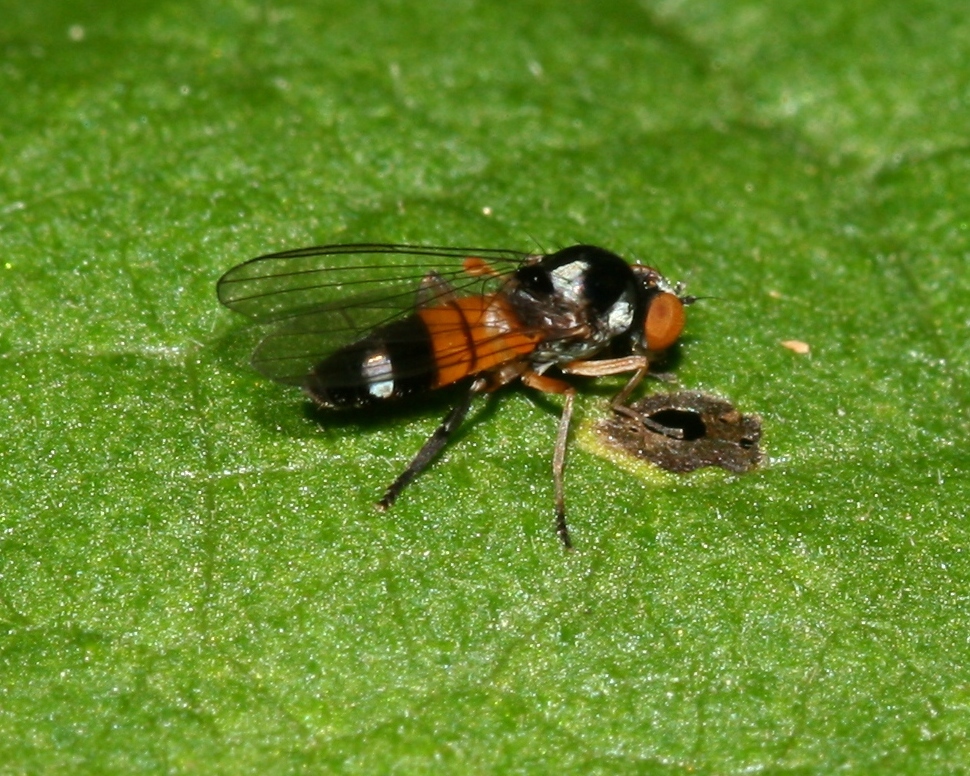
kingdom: Animalia
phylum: Arthropoda
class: Insecta
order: Diptera
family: Platypezidae
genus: Callomyia
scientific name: Callomyia amoena
